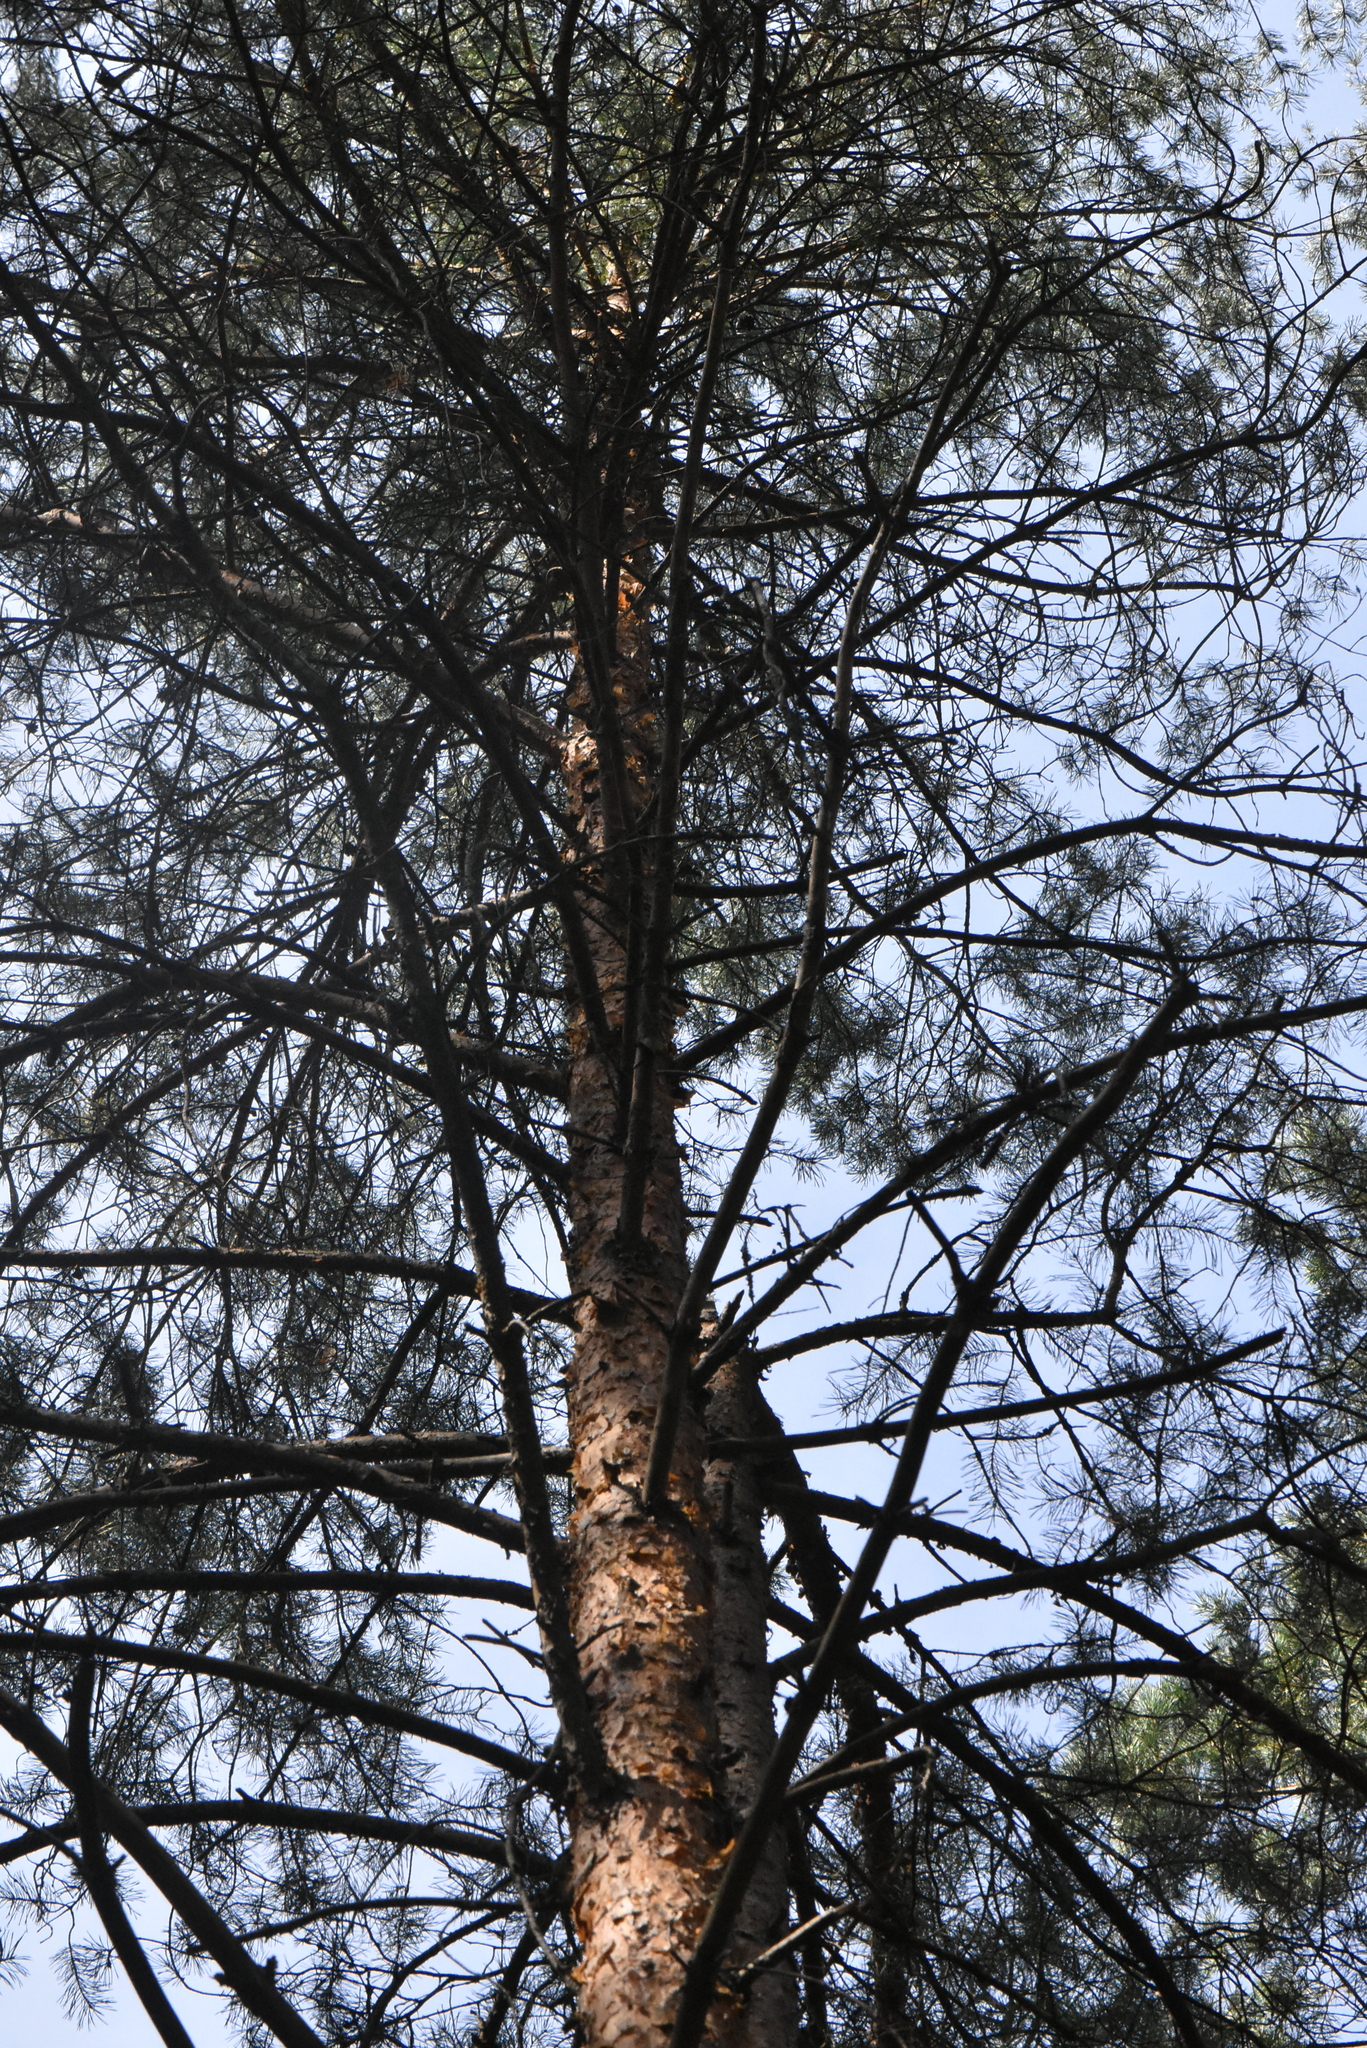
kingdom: Plantae
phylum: Tracheophyta
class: Pinopsida
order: Pinales
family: Pinaceae
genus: Pinus
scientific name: Pinus sylvestris
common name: Scots pine
